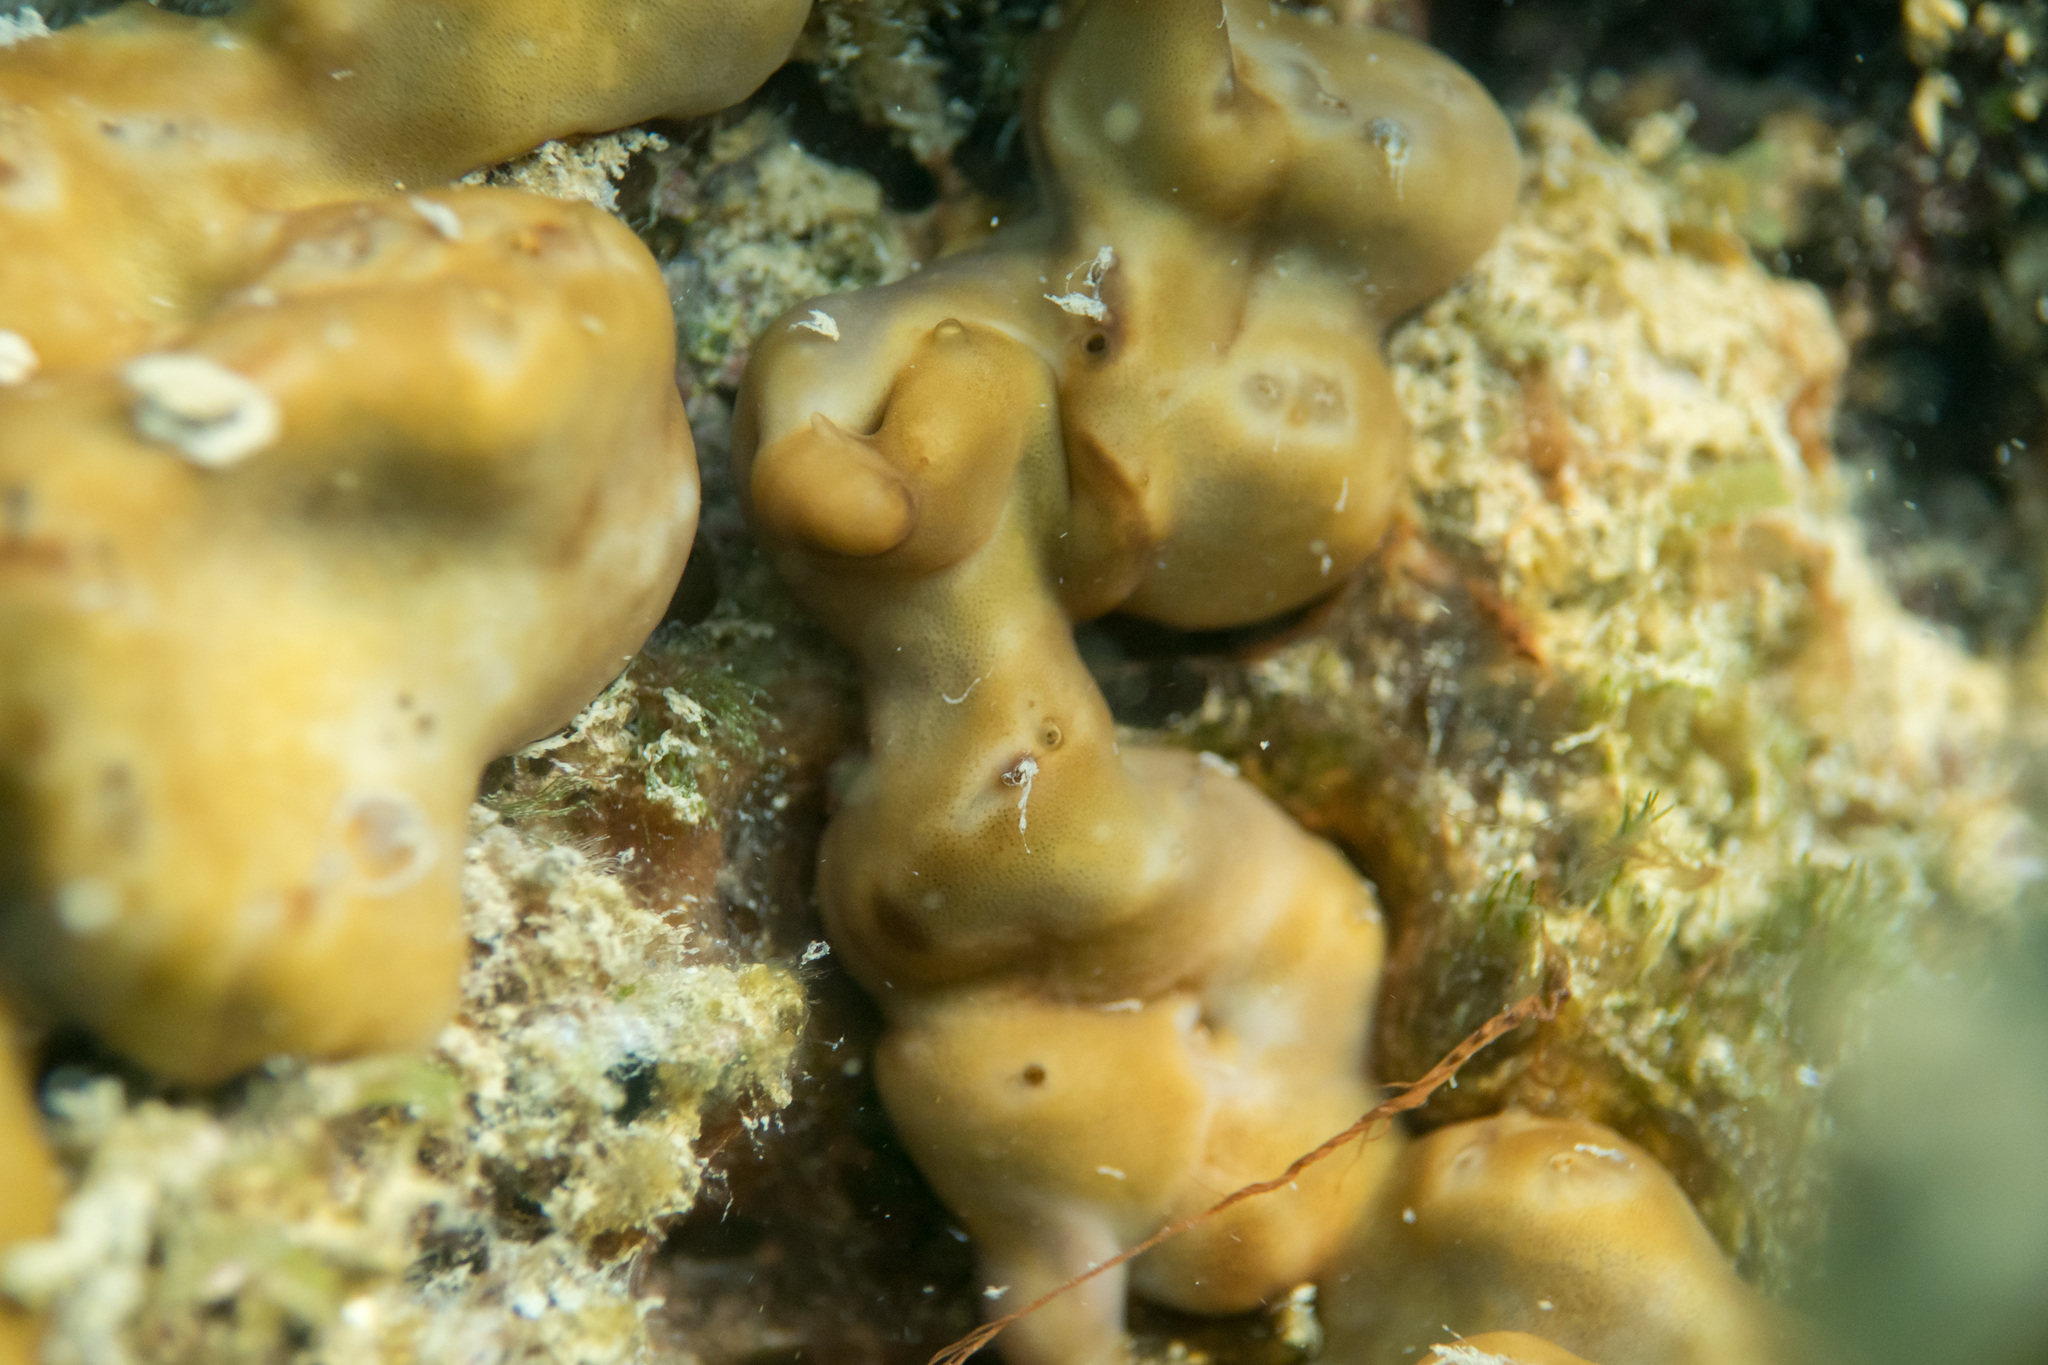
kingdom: Animalia
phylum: Porifera
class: Demospongiae
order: Chondrillida
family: Chondrillidae
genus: Chondrilla
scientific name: Chondrilla nucula
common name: Chicken liver sponge
